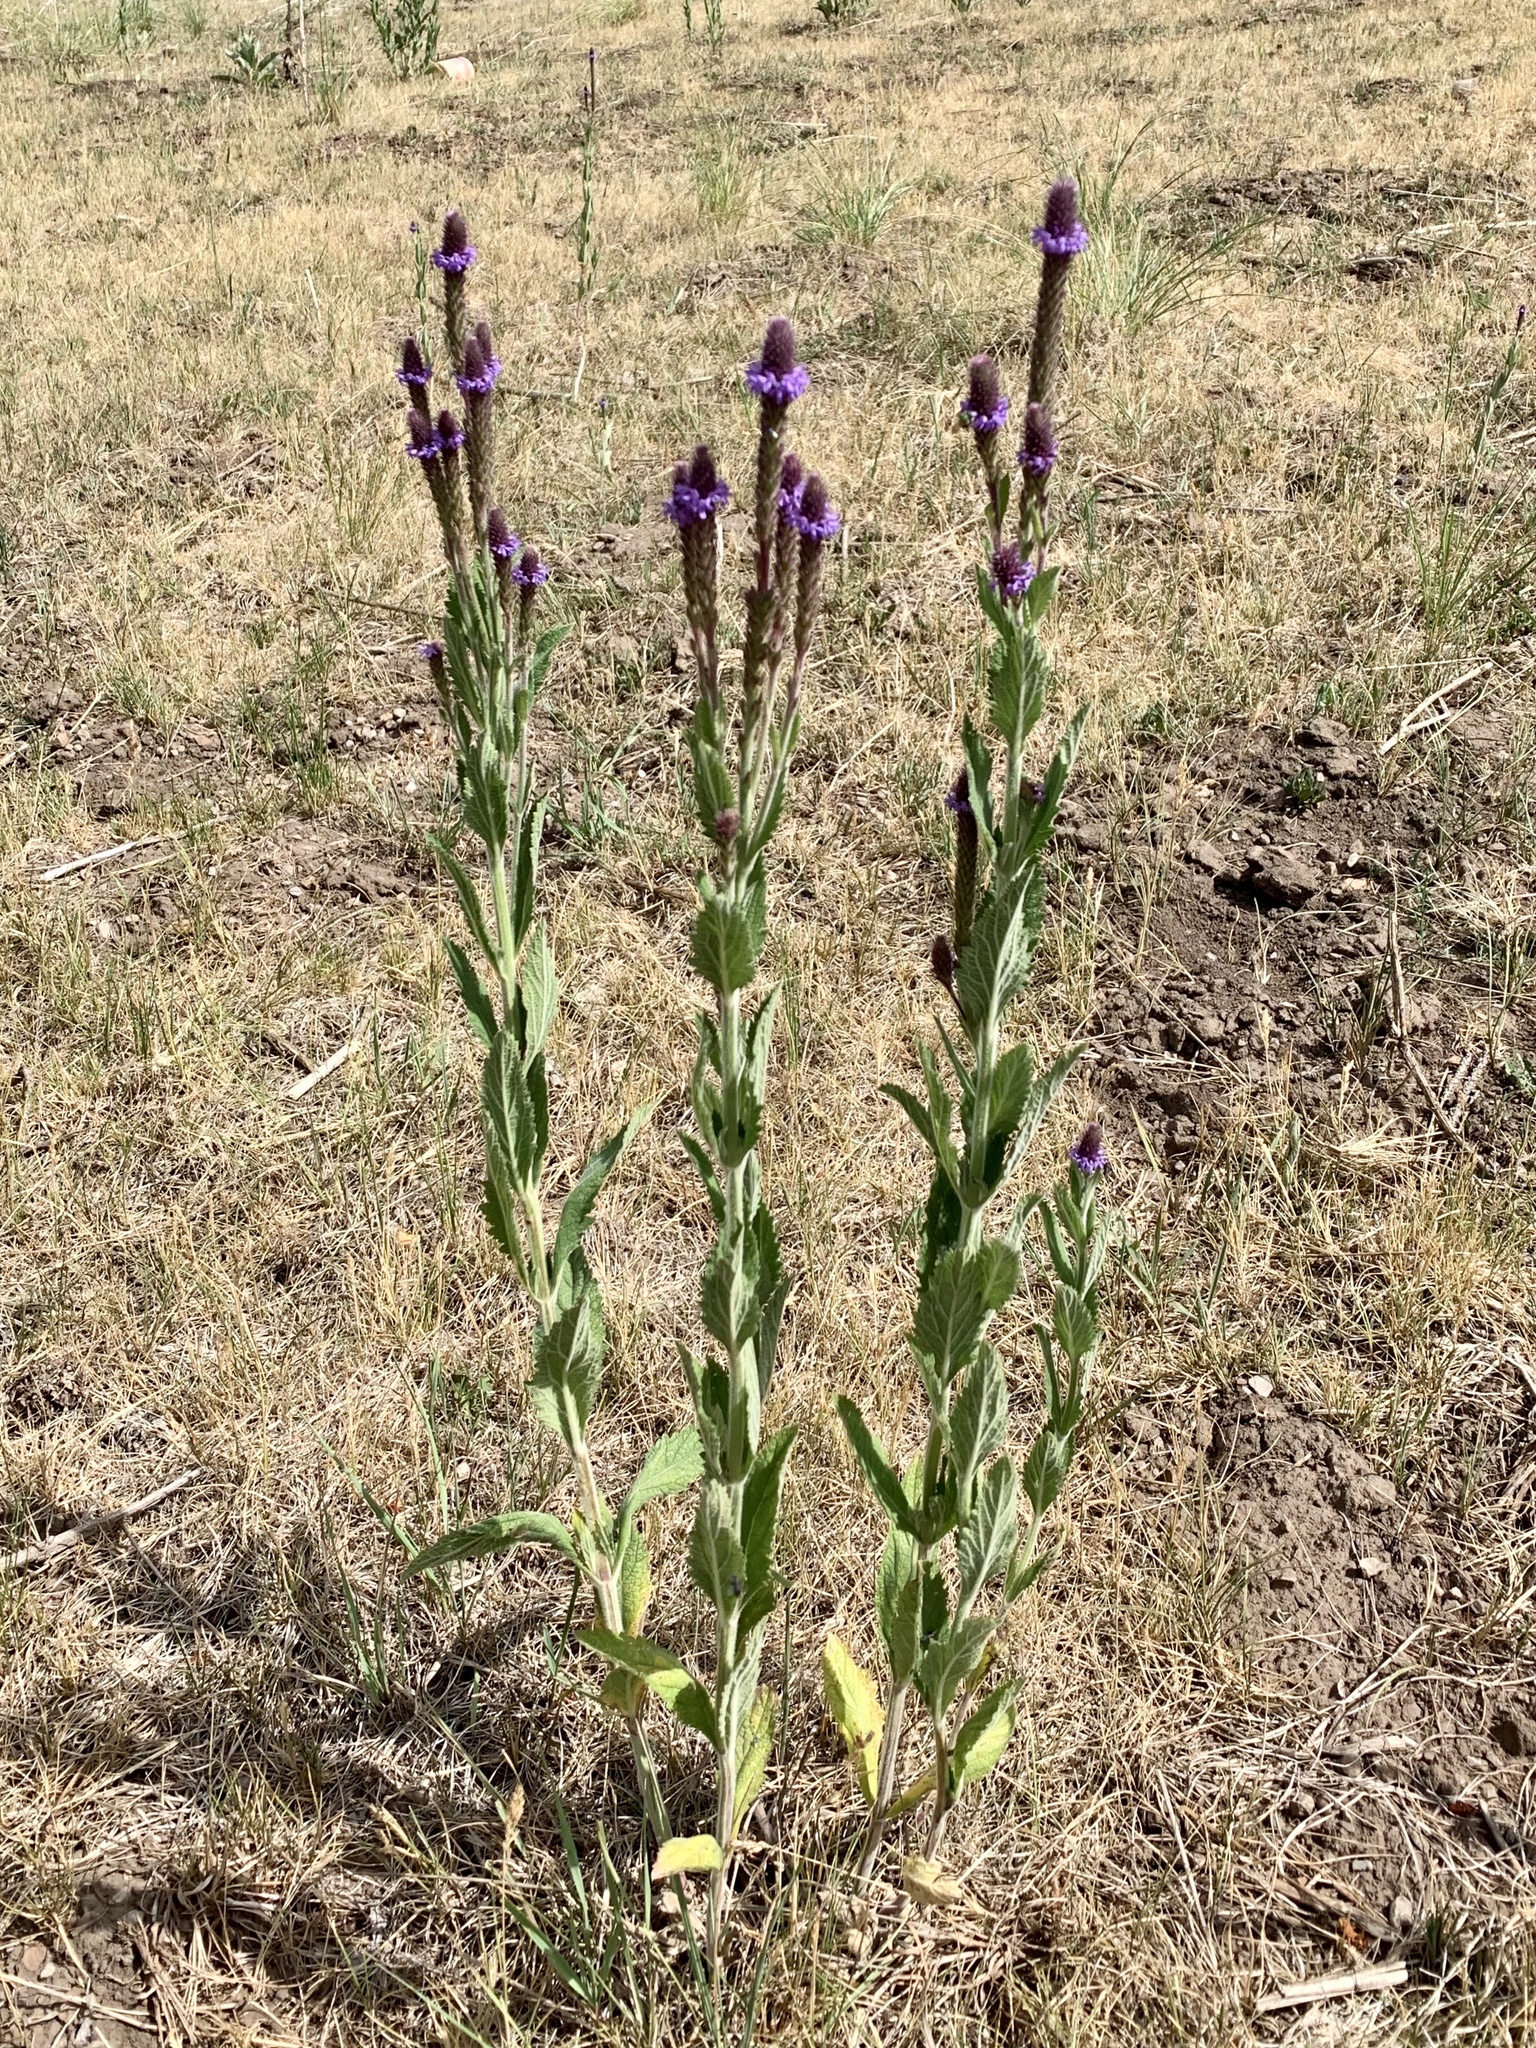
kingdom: Plantae
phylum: Tracheophyta
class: Magnoliopsida
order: Lamiales
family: Verbenaceae
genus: Verbena
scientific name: Verbena macdougalii
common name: New mexico vervain
